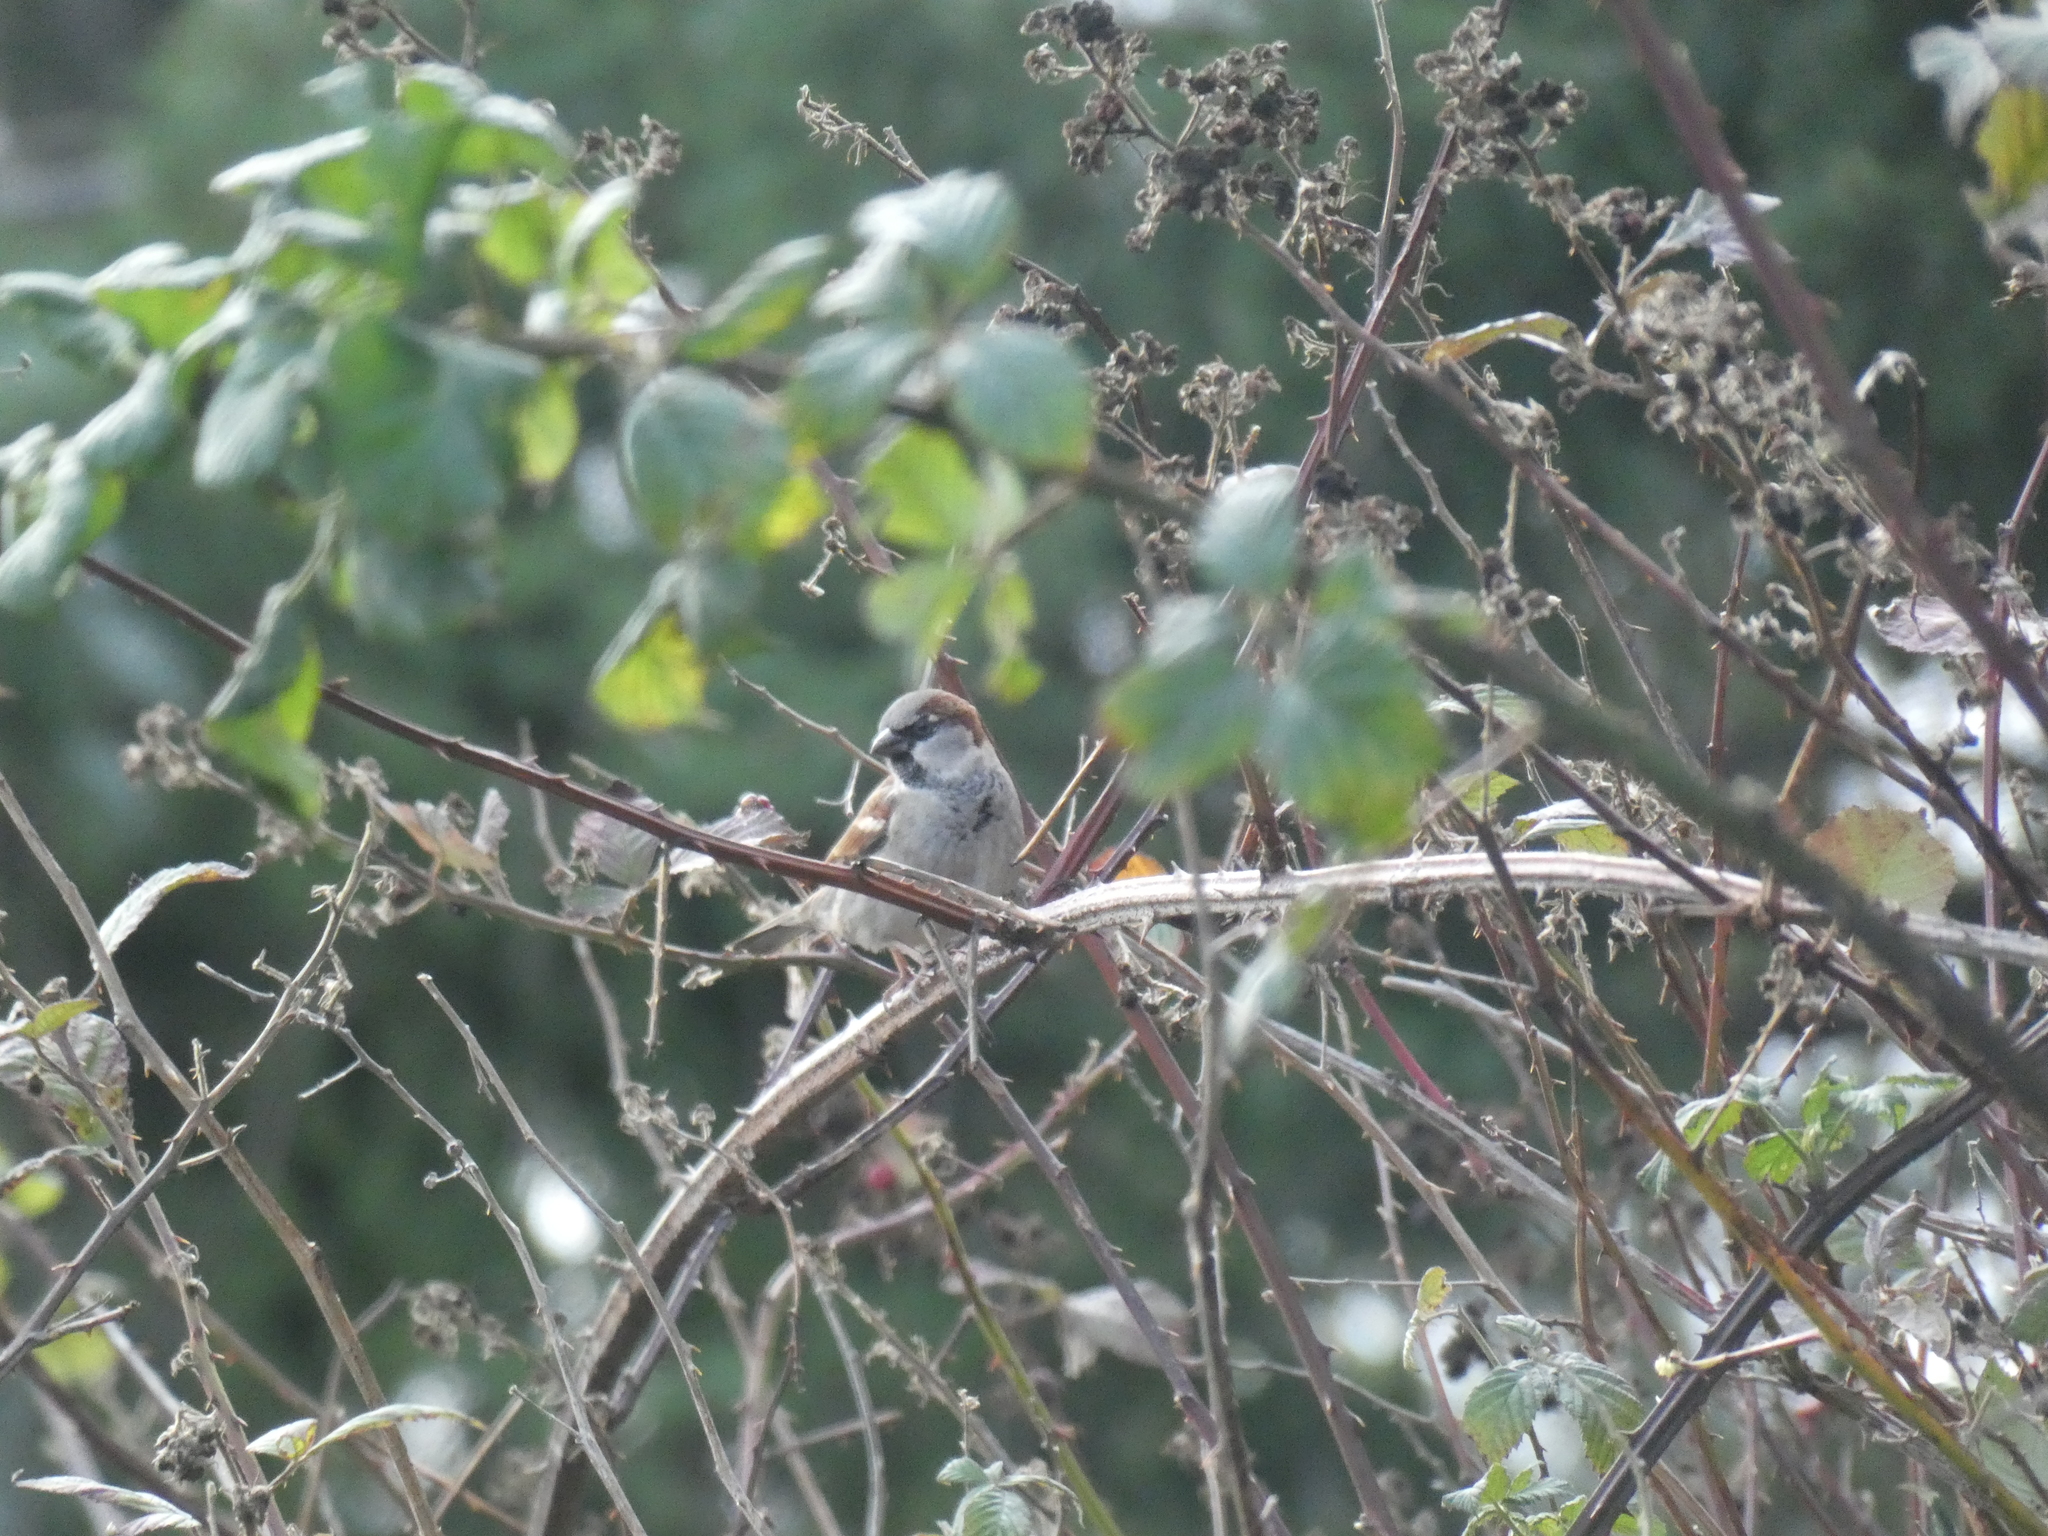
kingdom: Animalia
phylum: Chordata
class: Aves
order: Passeriformes
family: Passeridae
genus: Passer
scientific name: Passer domesticus
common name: House sparrow
